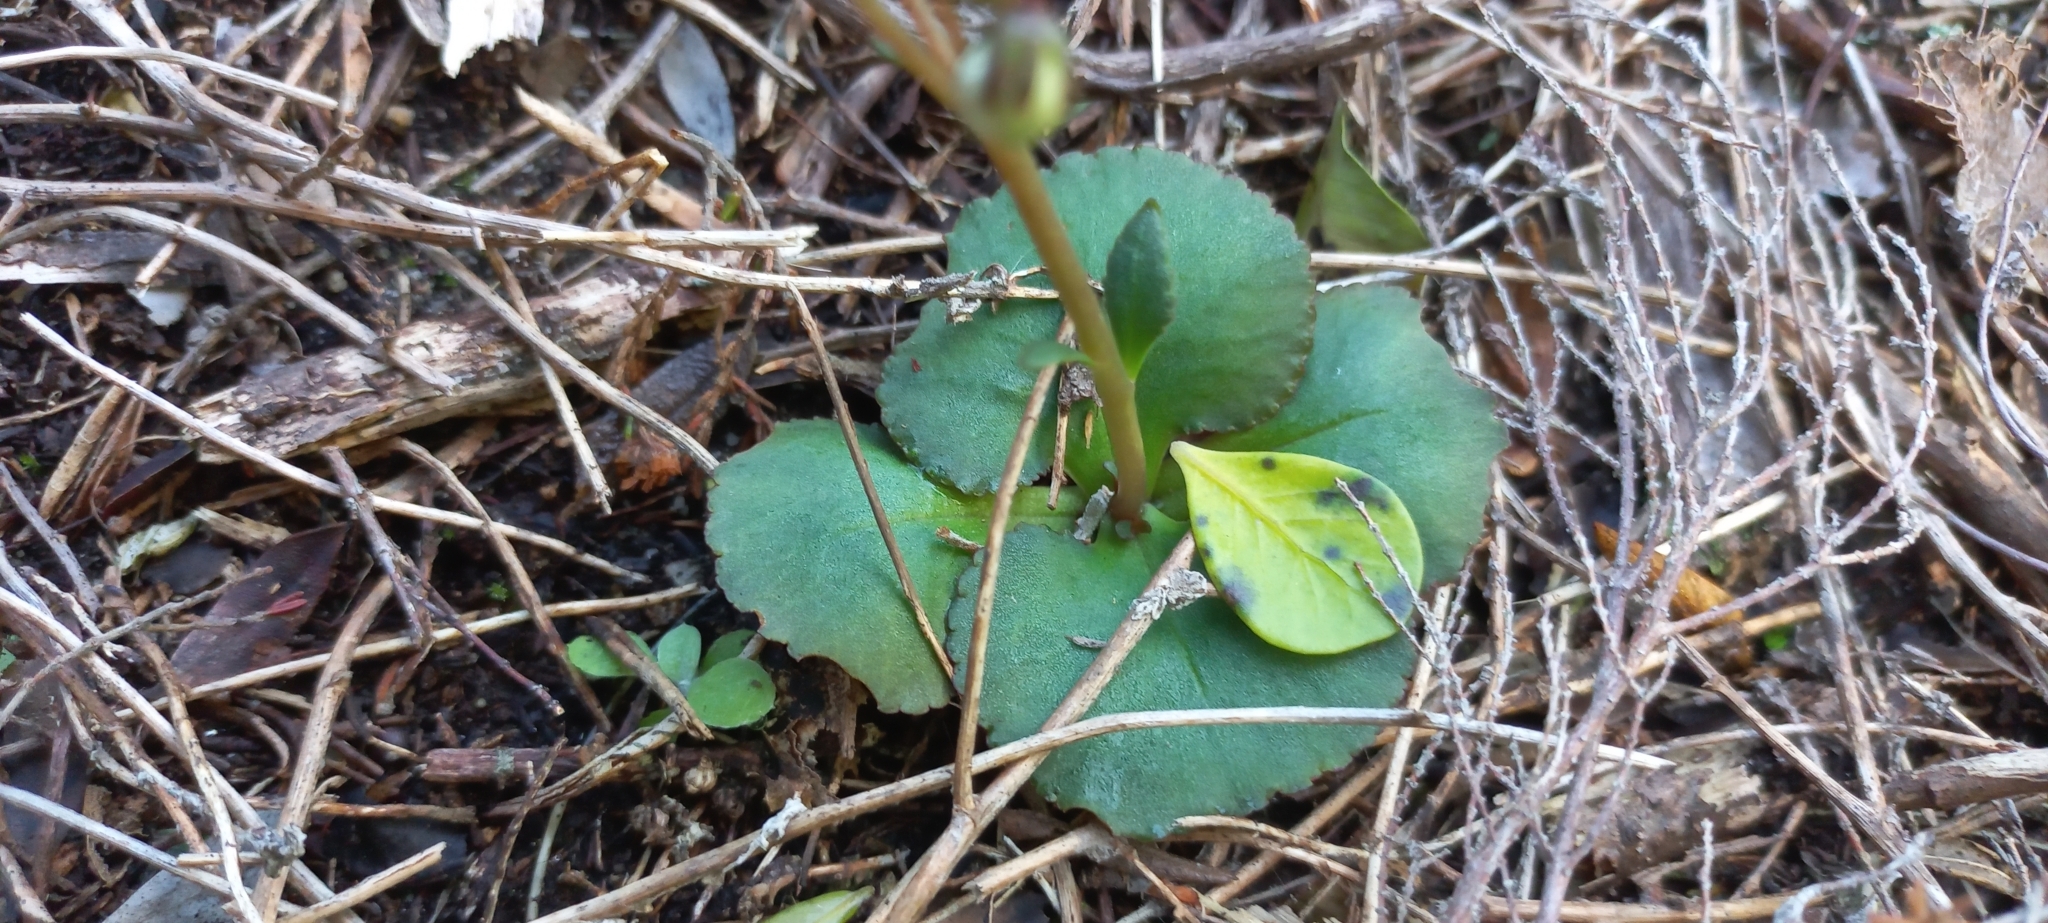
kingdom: Plantae
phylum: Tracheophyta
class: Magnoliopsida
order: Saxifragales
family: Crassulaceae
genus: Crassula
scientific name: Crassula capensis
